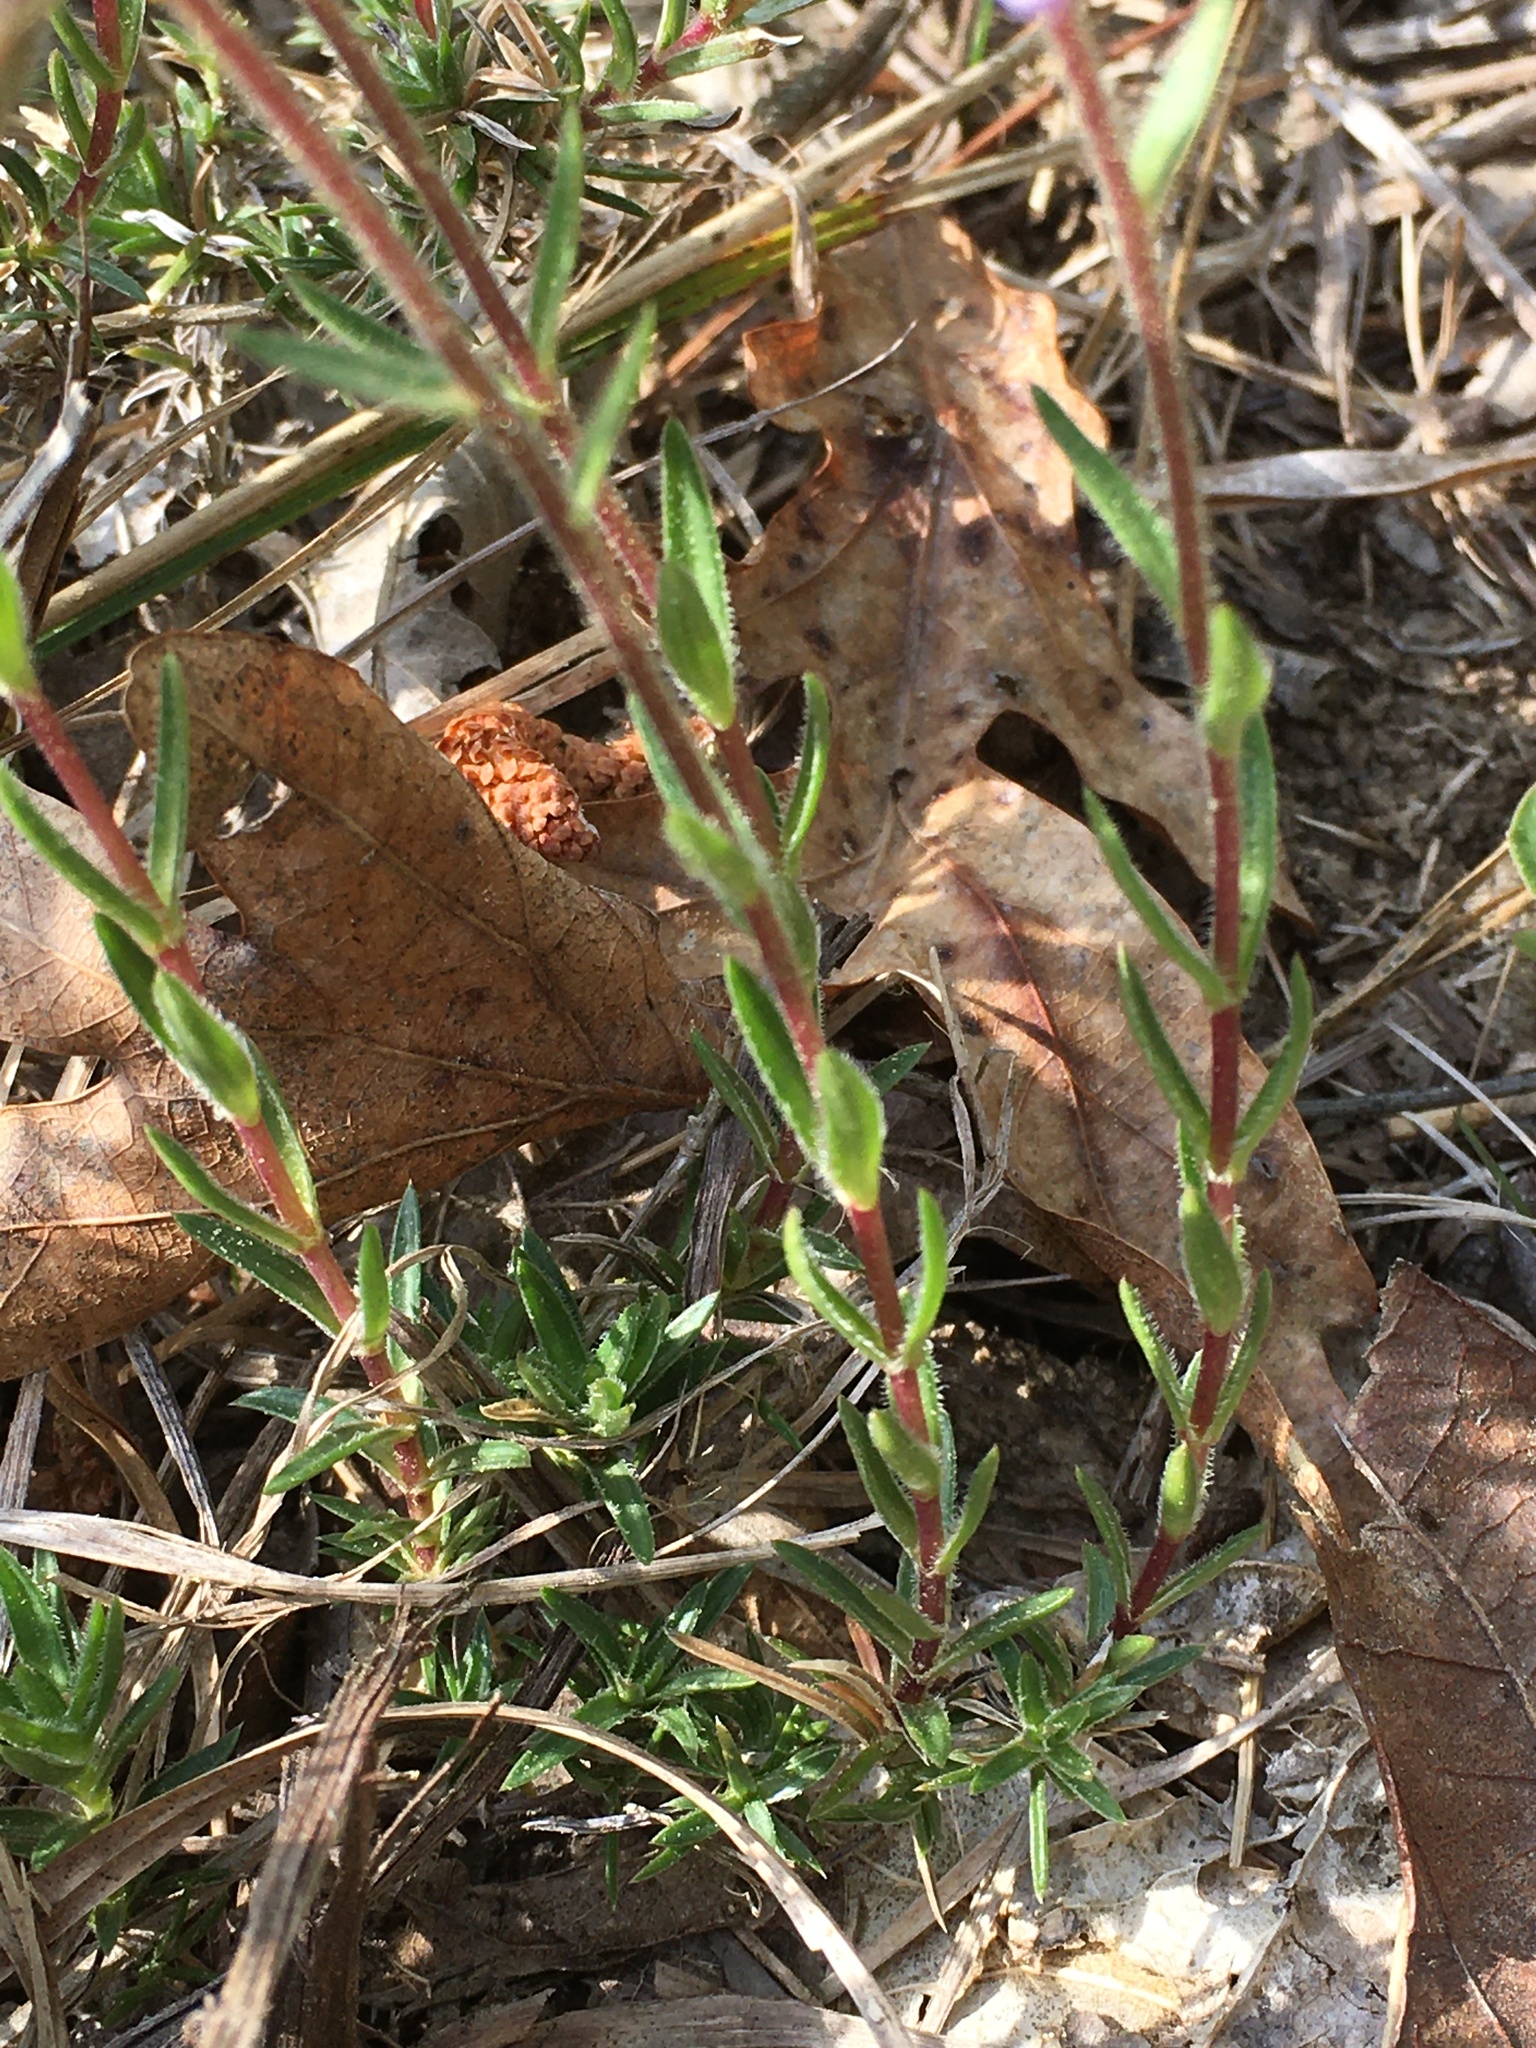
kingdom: Plantae
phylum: Tracheophyta
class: Magnoliopsida
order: Ericales
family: Polemoniaceae
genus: Phlox
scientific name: Phlox nivalis
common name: Trailing phlox
